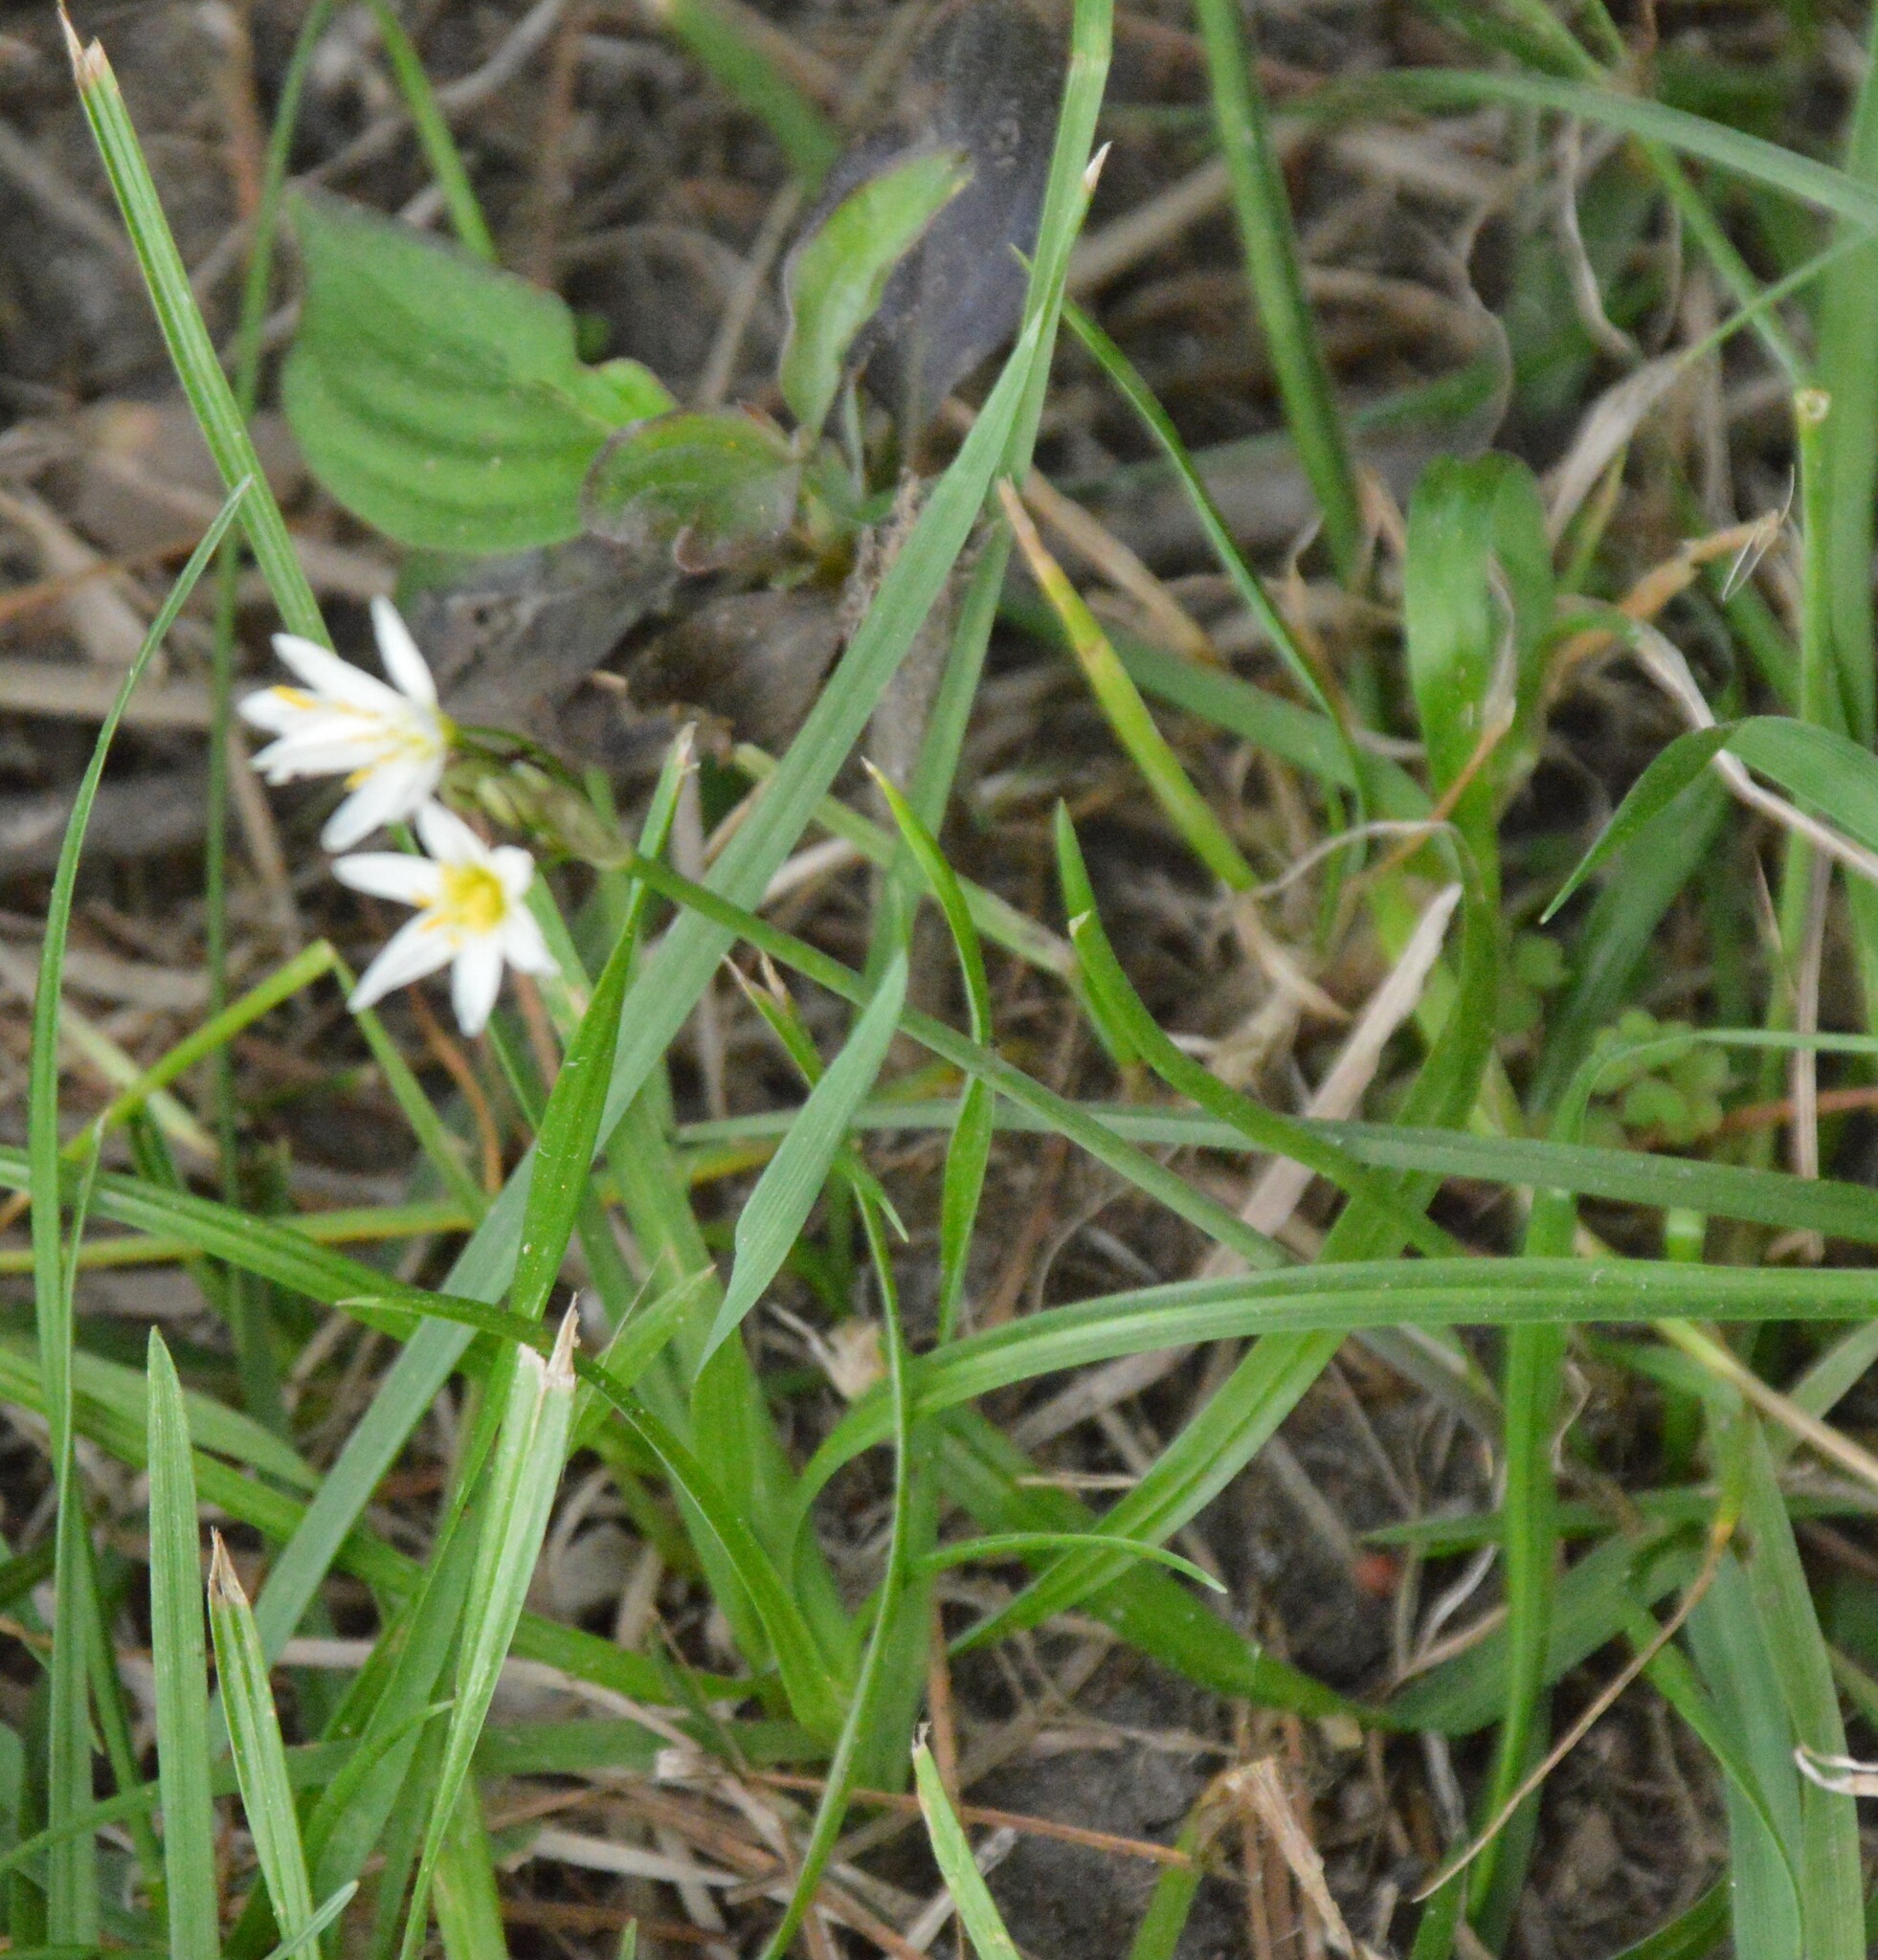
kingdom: Plantae
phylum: Tracheophyta
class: Liliopsida
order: Asparagales
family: Amaryllidaceae
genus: Nothoscordum
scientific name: Nothoscordum bivalve
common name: Crow-poison
